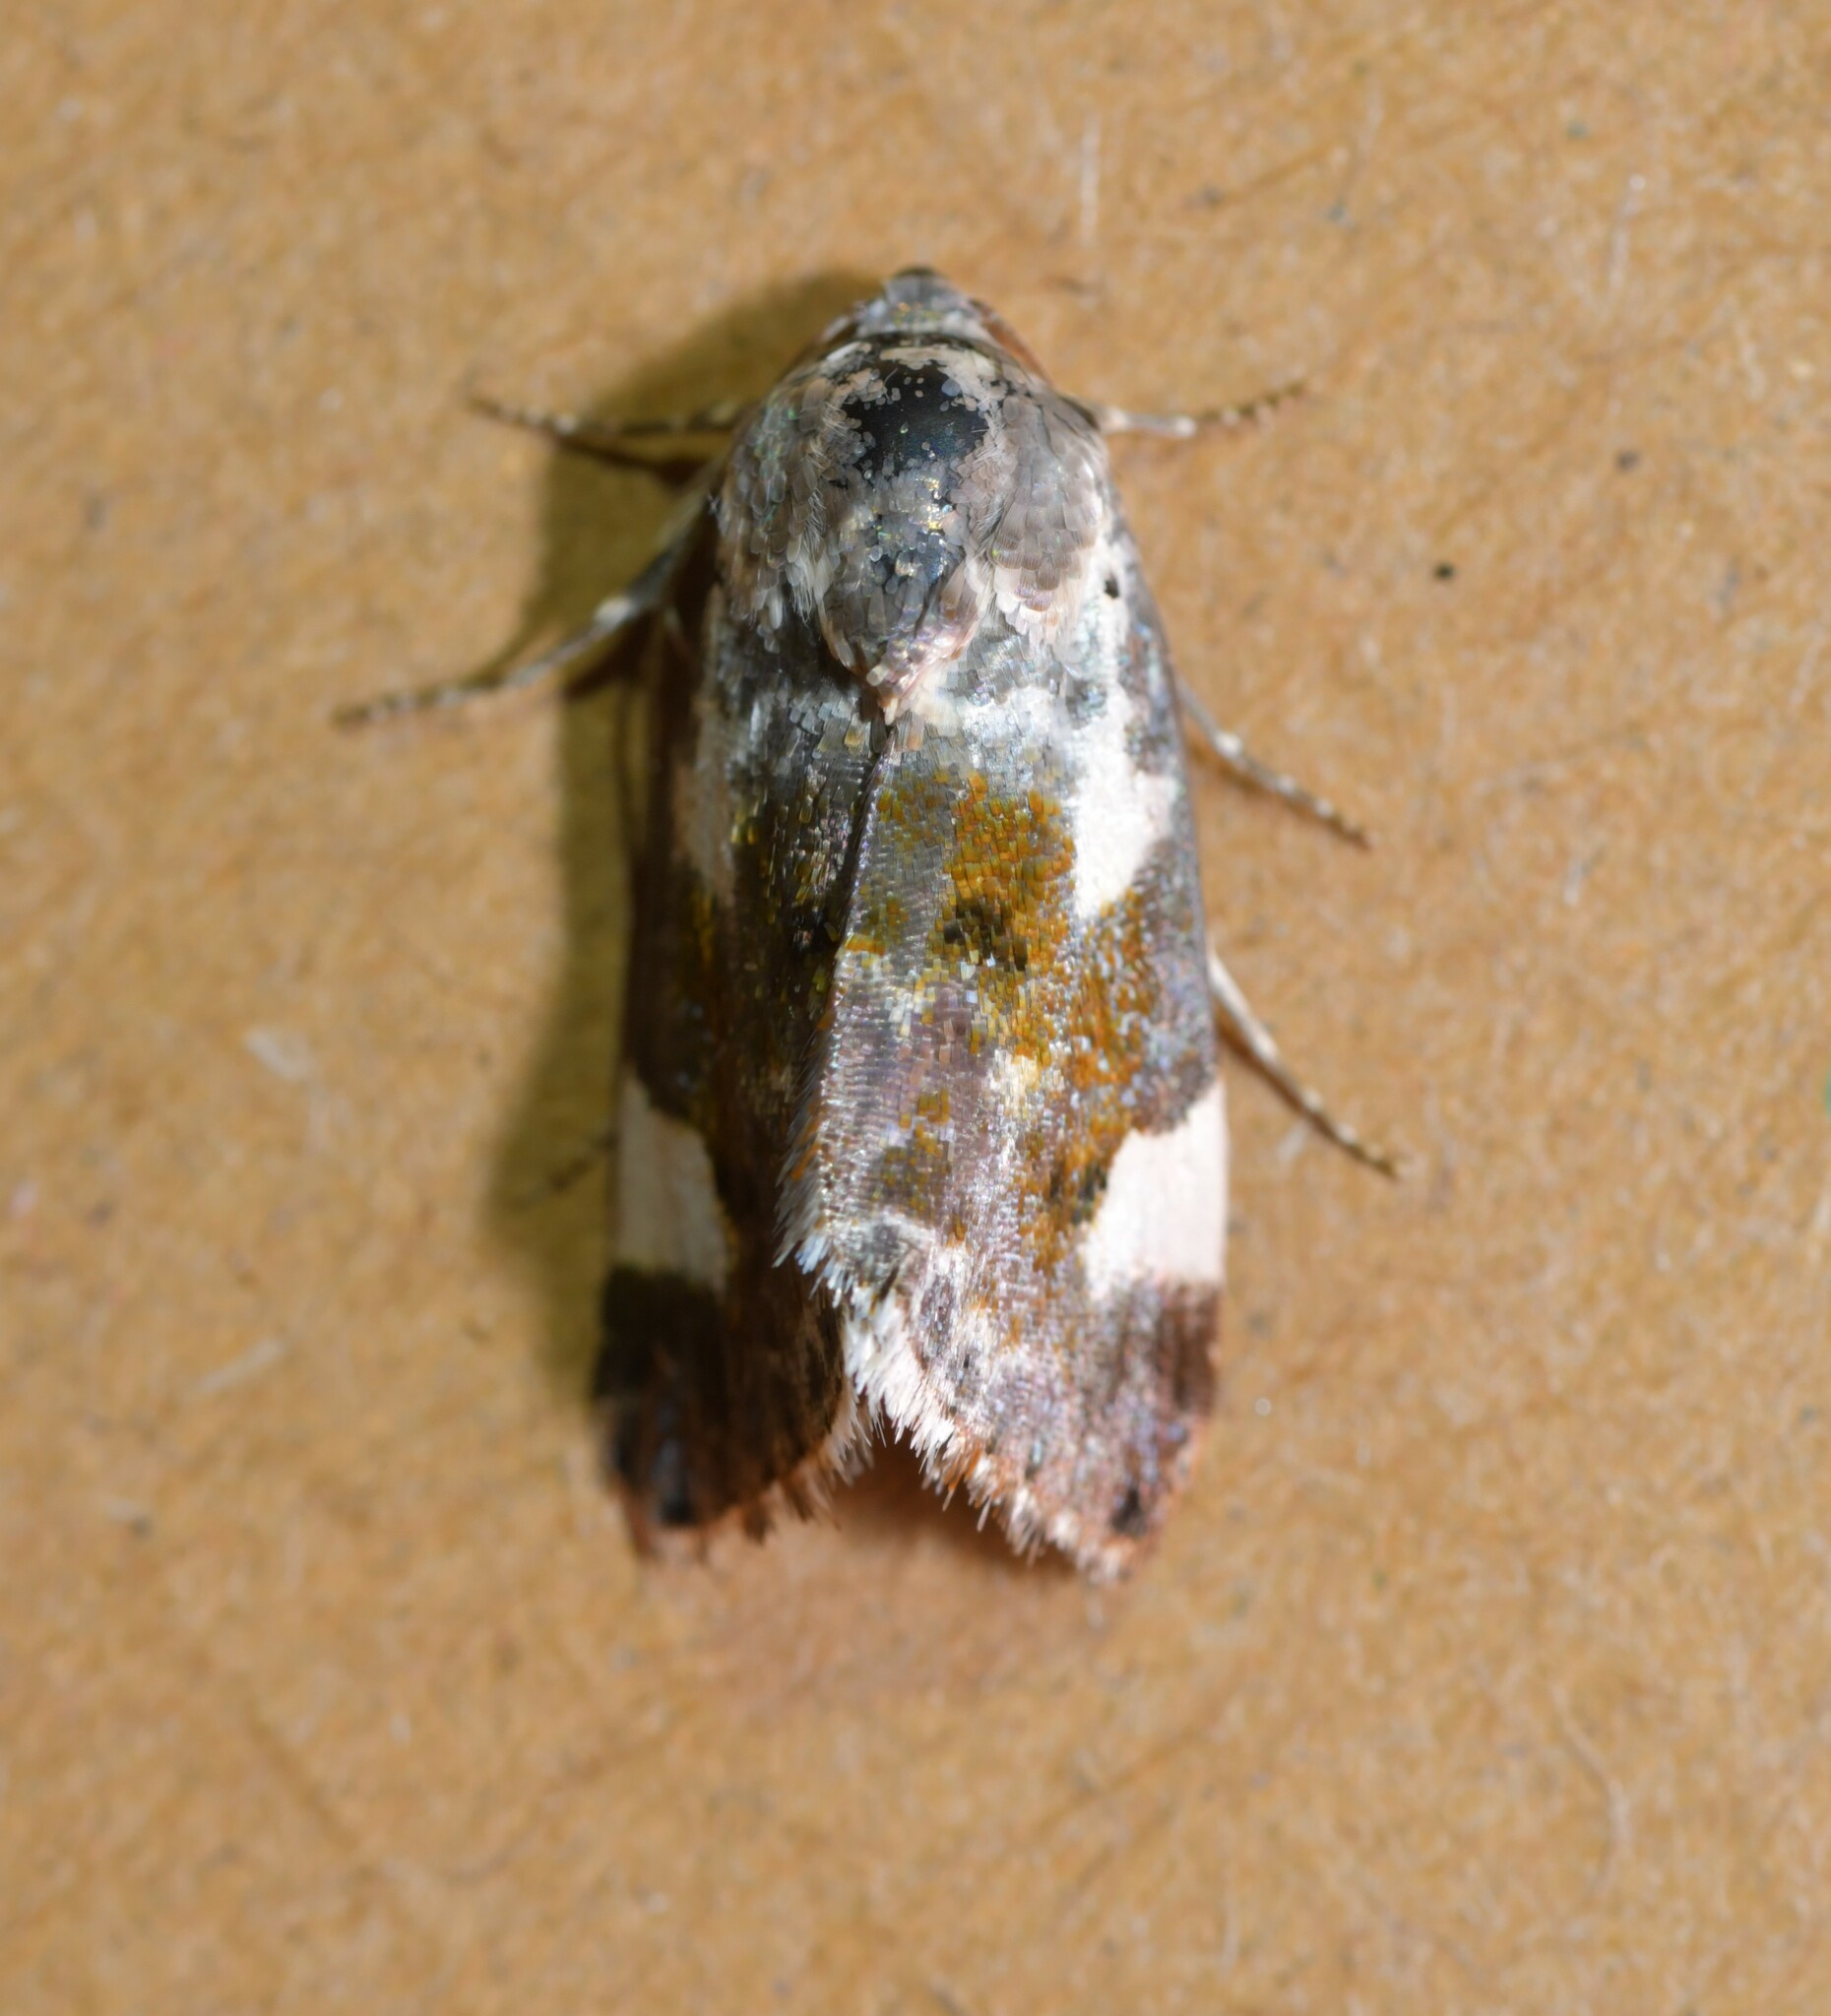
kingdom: Animalia
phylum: Arthropoda
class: Insecta
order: Lepidoptera
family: Noctuidae
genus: Acontia
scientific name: Acontia lucida
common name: Pale shoulder
